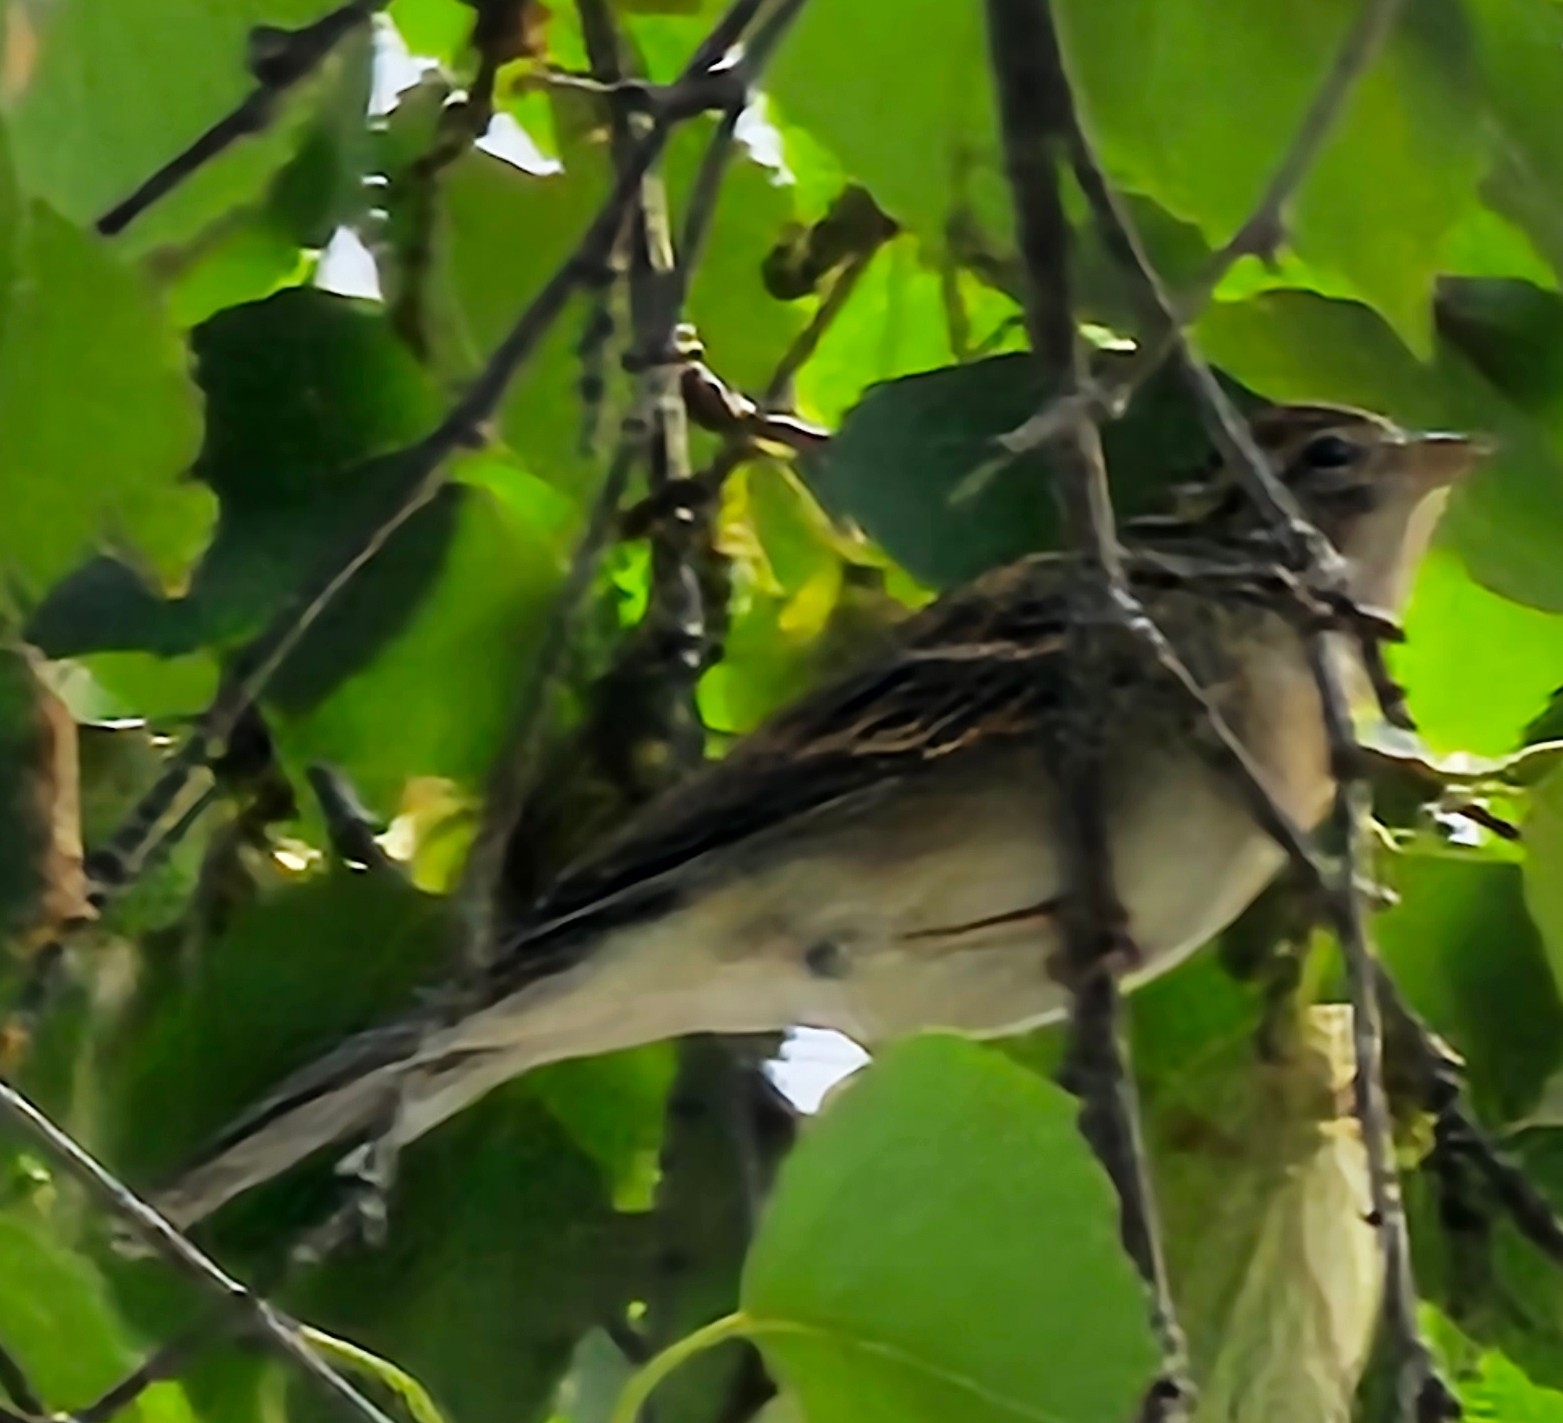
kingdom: Animalia
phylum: Chordata
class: Aves
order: Passeriformes
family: Passerellidae
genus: Spizella
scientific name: Spizella passerina
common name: Chipping sparrow
